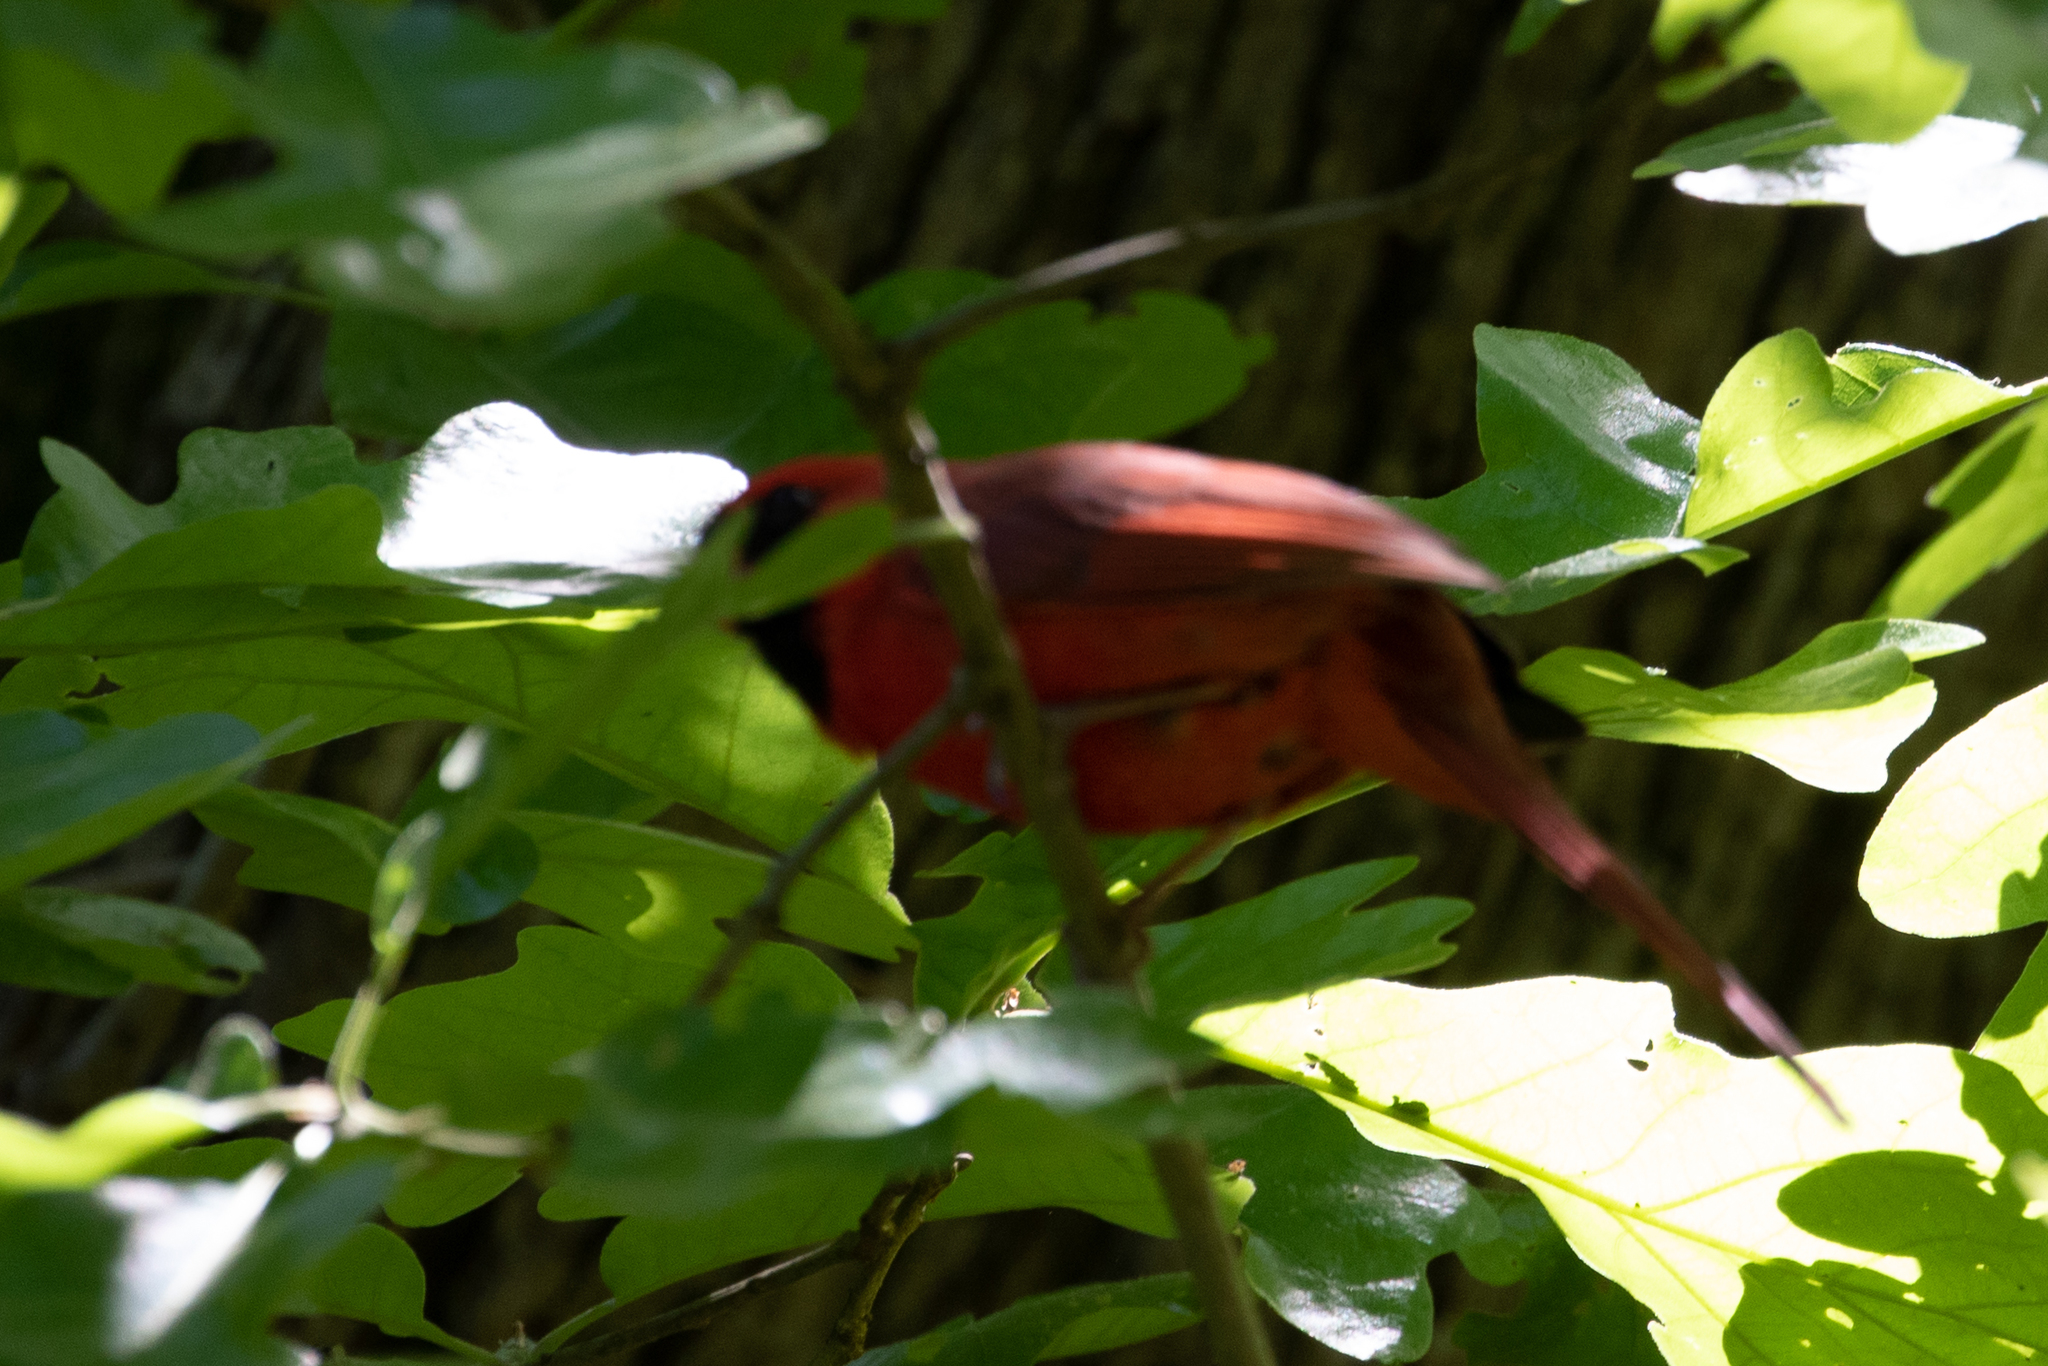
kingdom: Animalia
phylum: Chordata
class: Aves
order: Passeriformes
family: Cardinalidae
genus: Cardinalis
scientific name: Cardinalis cardinalis
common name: Northern cardinal
